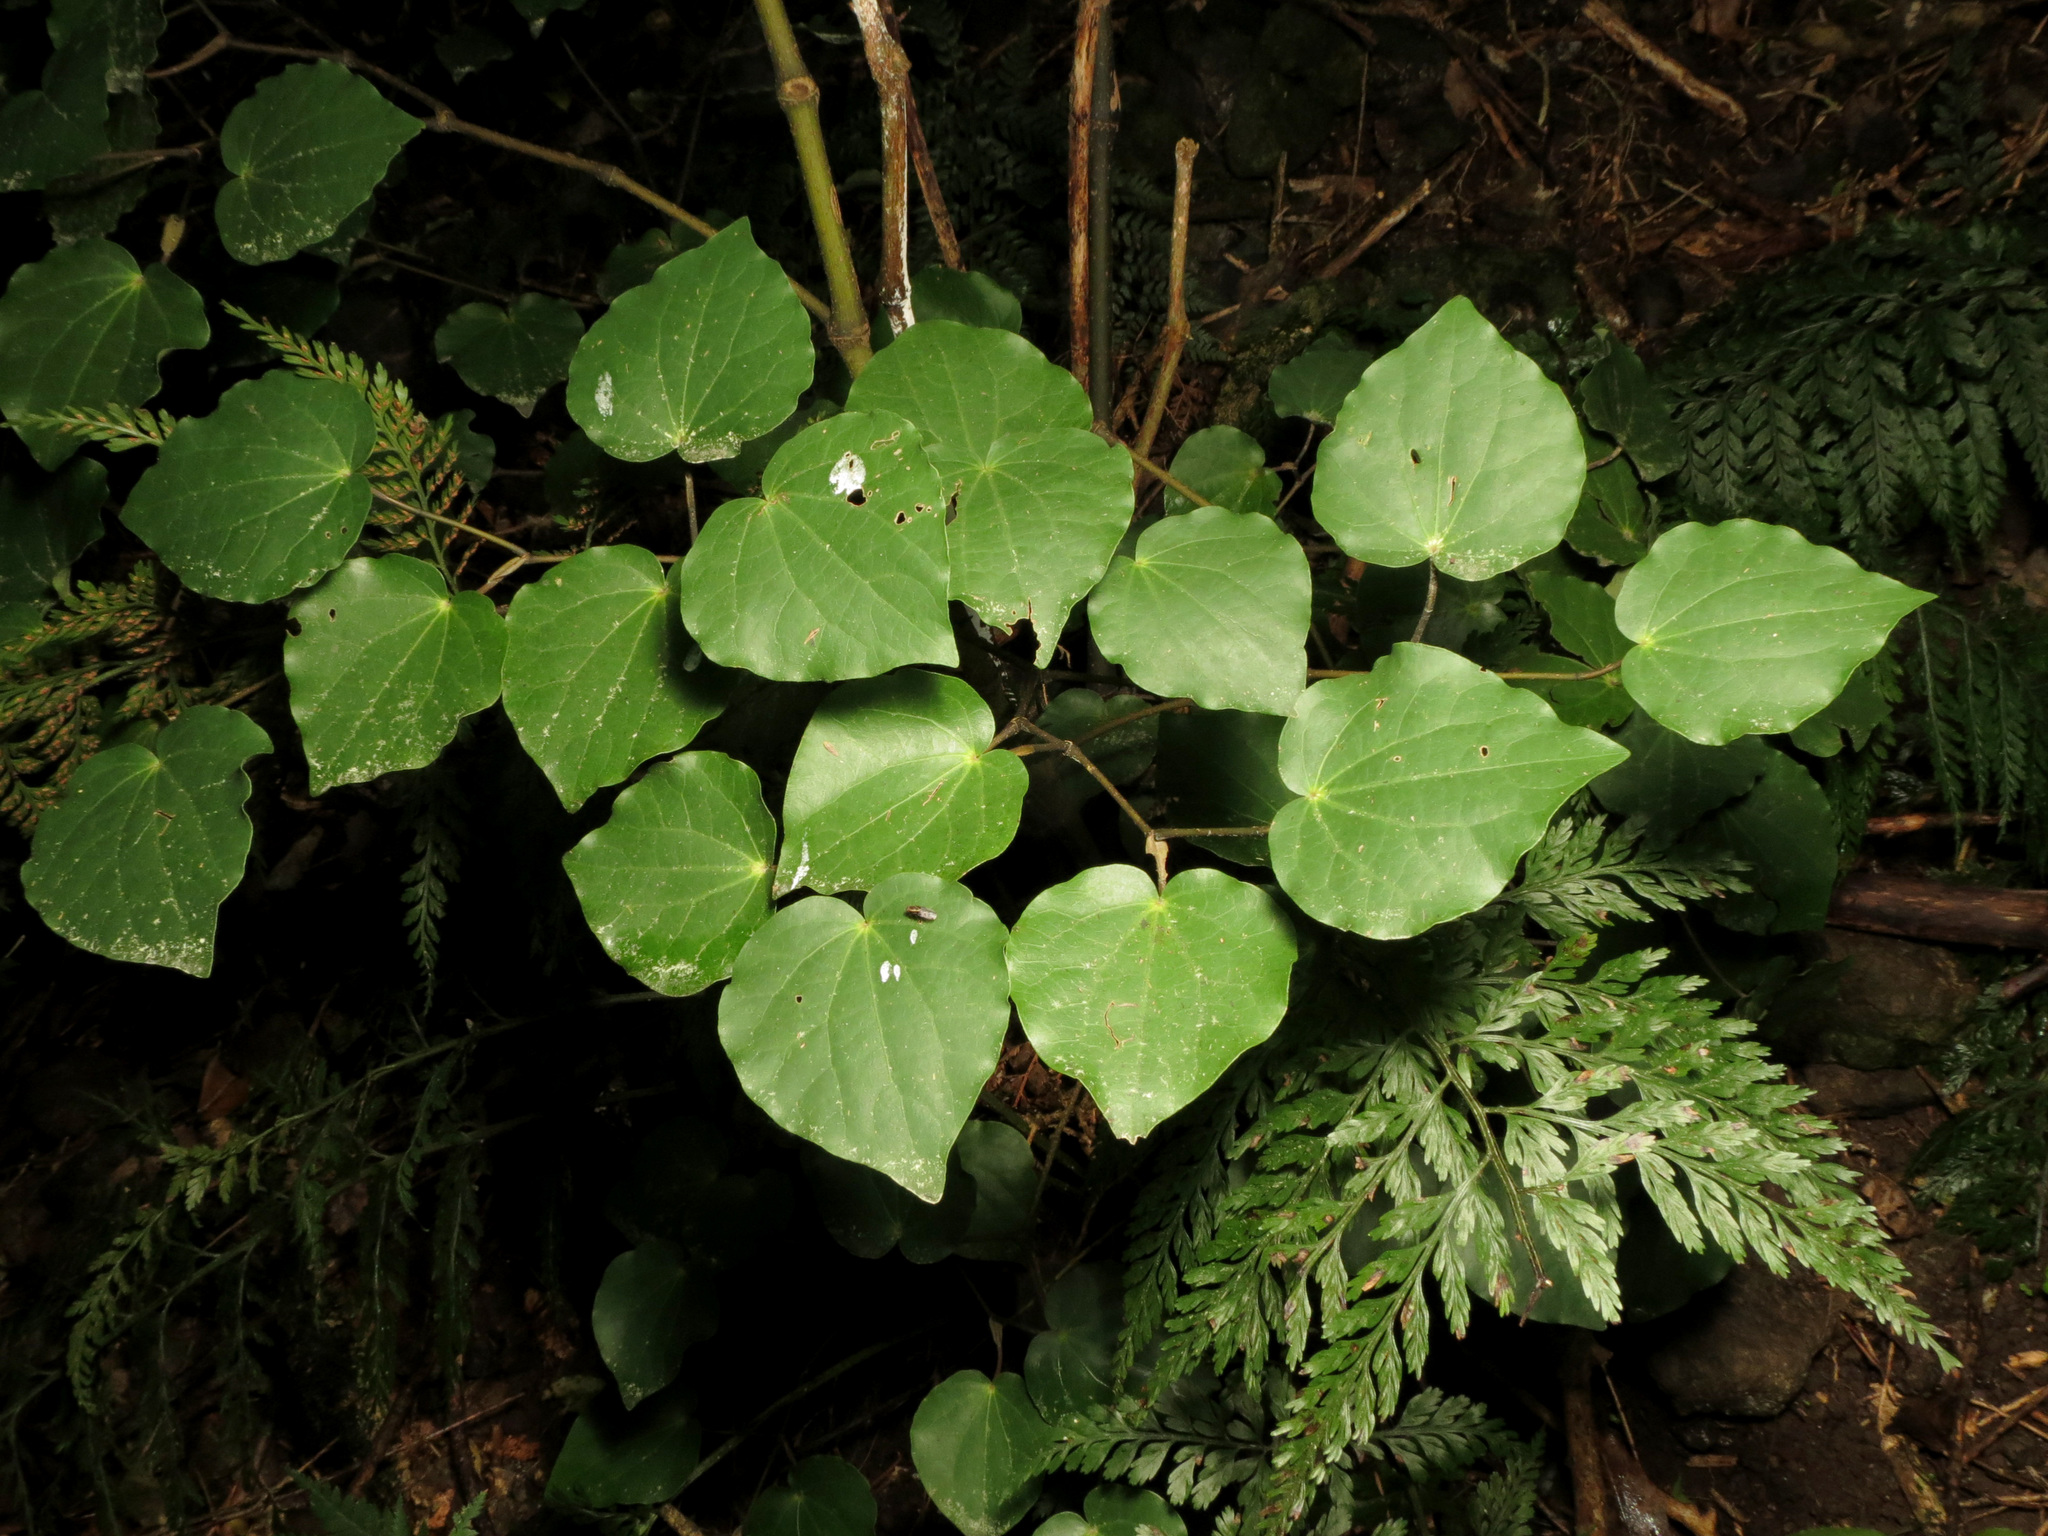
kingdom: Plantae
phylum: Tracheophyta
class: Magnoliopsida
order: Piperales
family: Piperaceae
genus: Macropiper
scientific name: Macropiper excelsum
